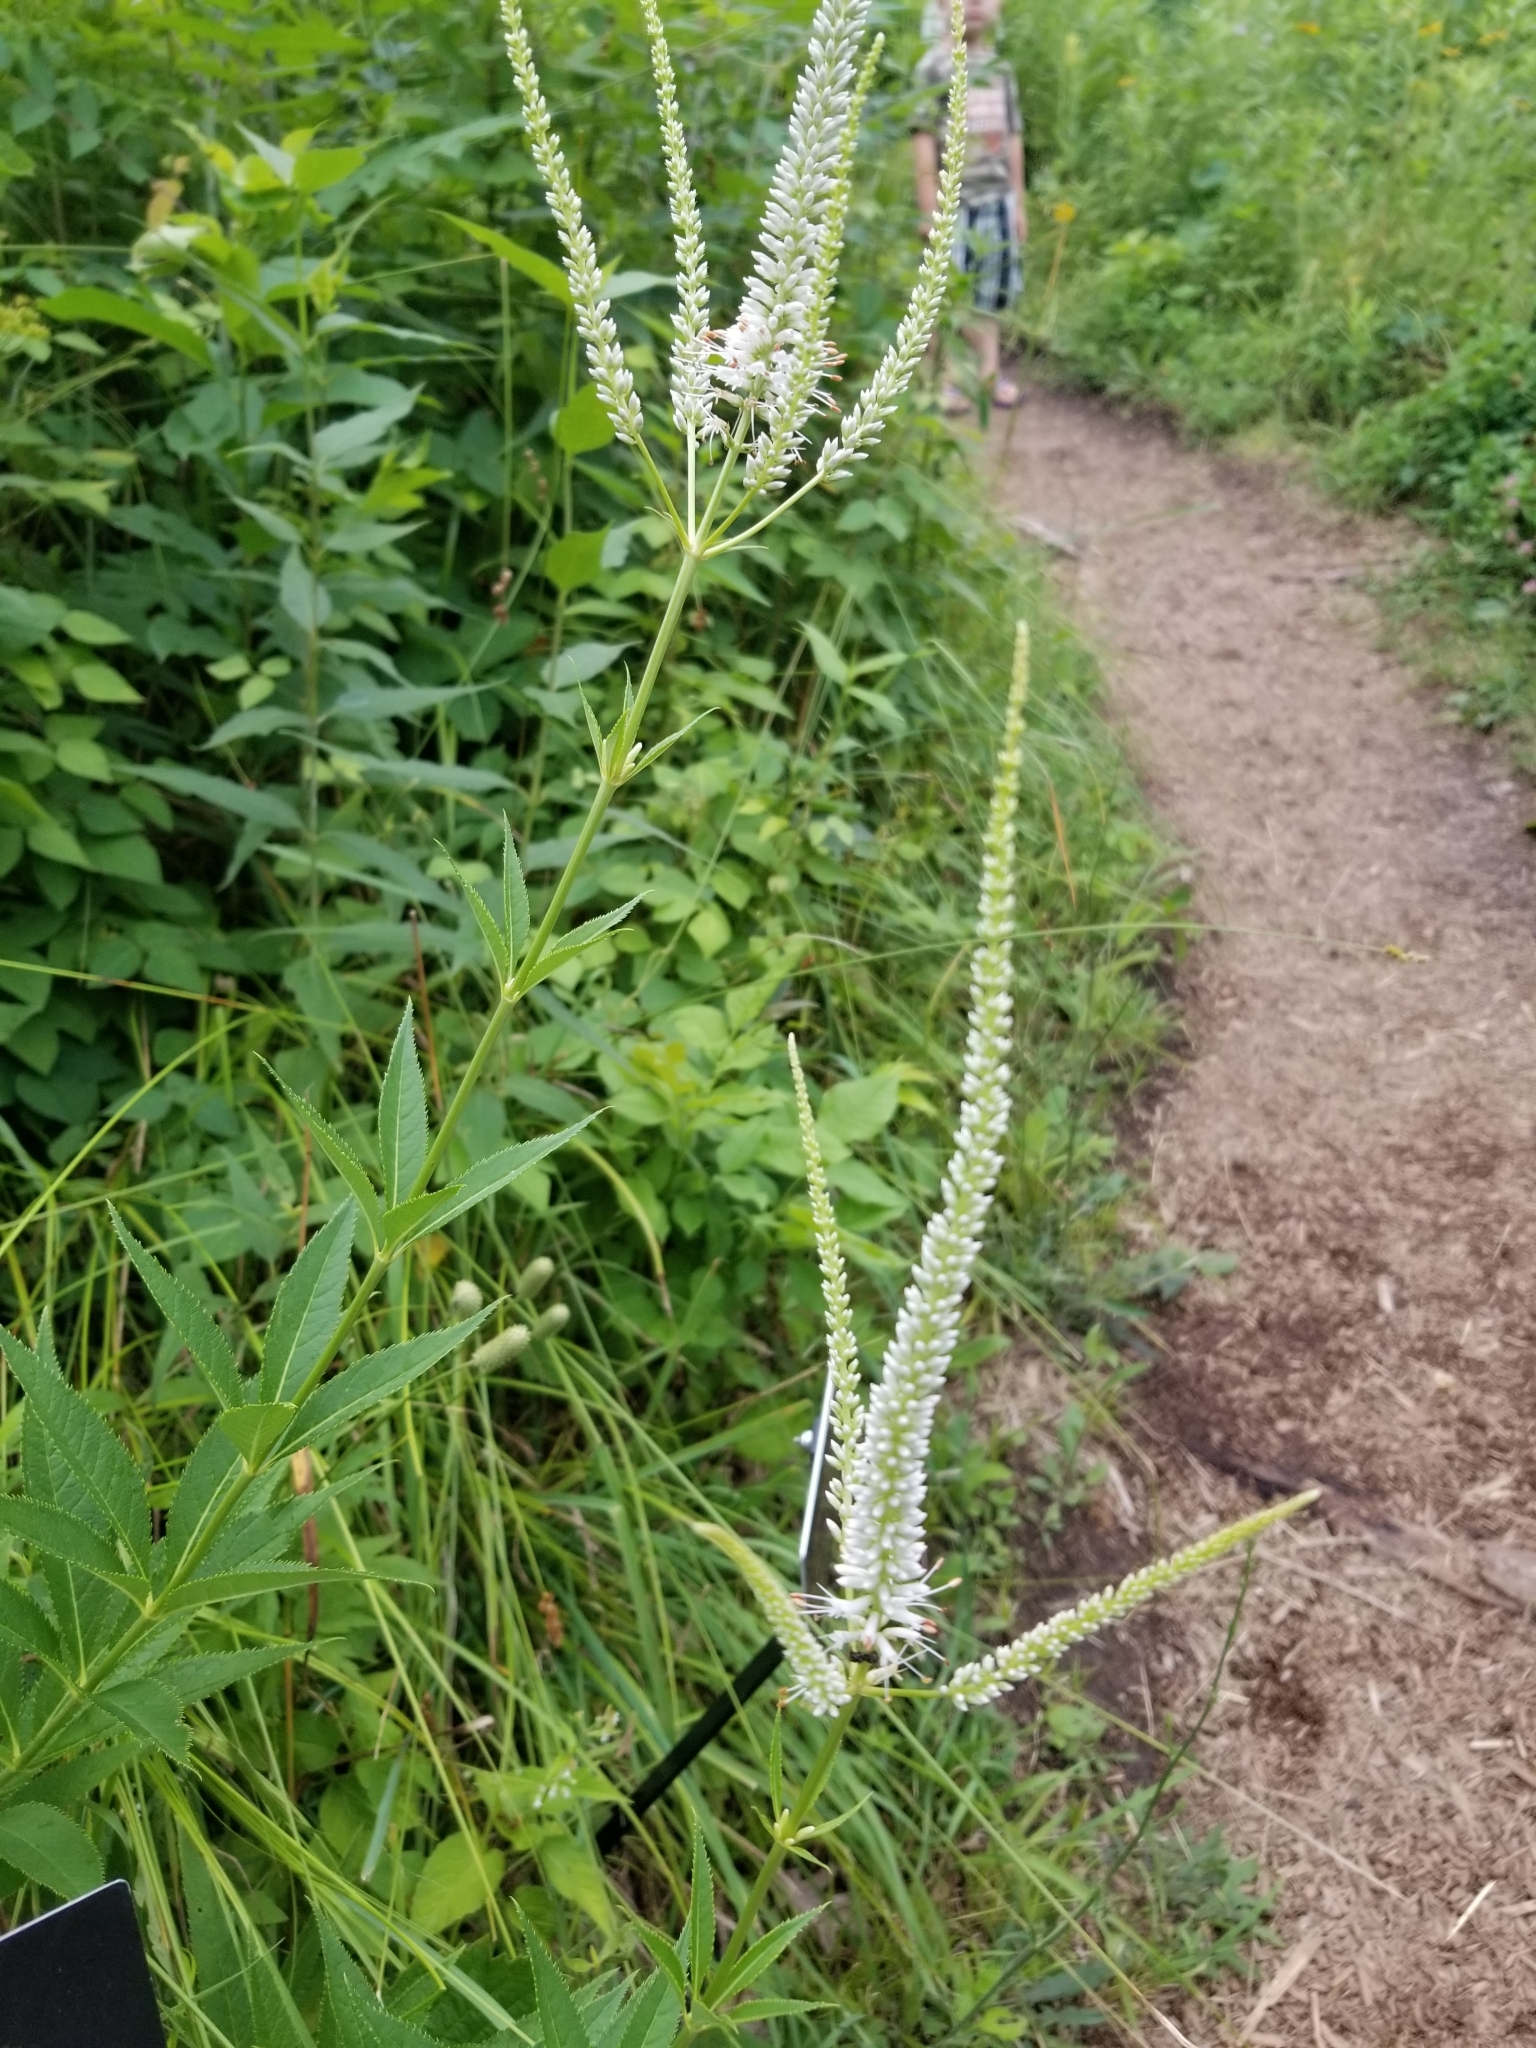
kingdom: Plantae
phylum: Tracheophyta
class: Magnoliopsida
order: Lamiales
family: Plantaginaceae
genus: Veronicastrum
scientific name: Veronicastrum virginicum
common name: Blackroot
